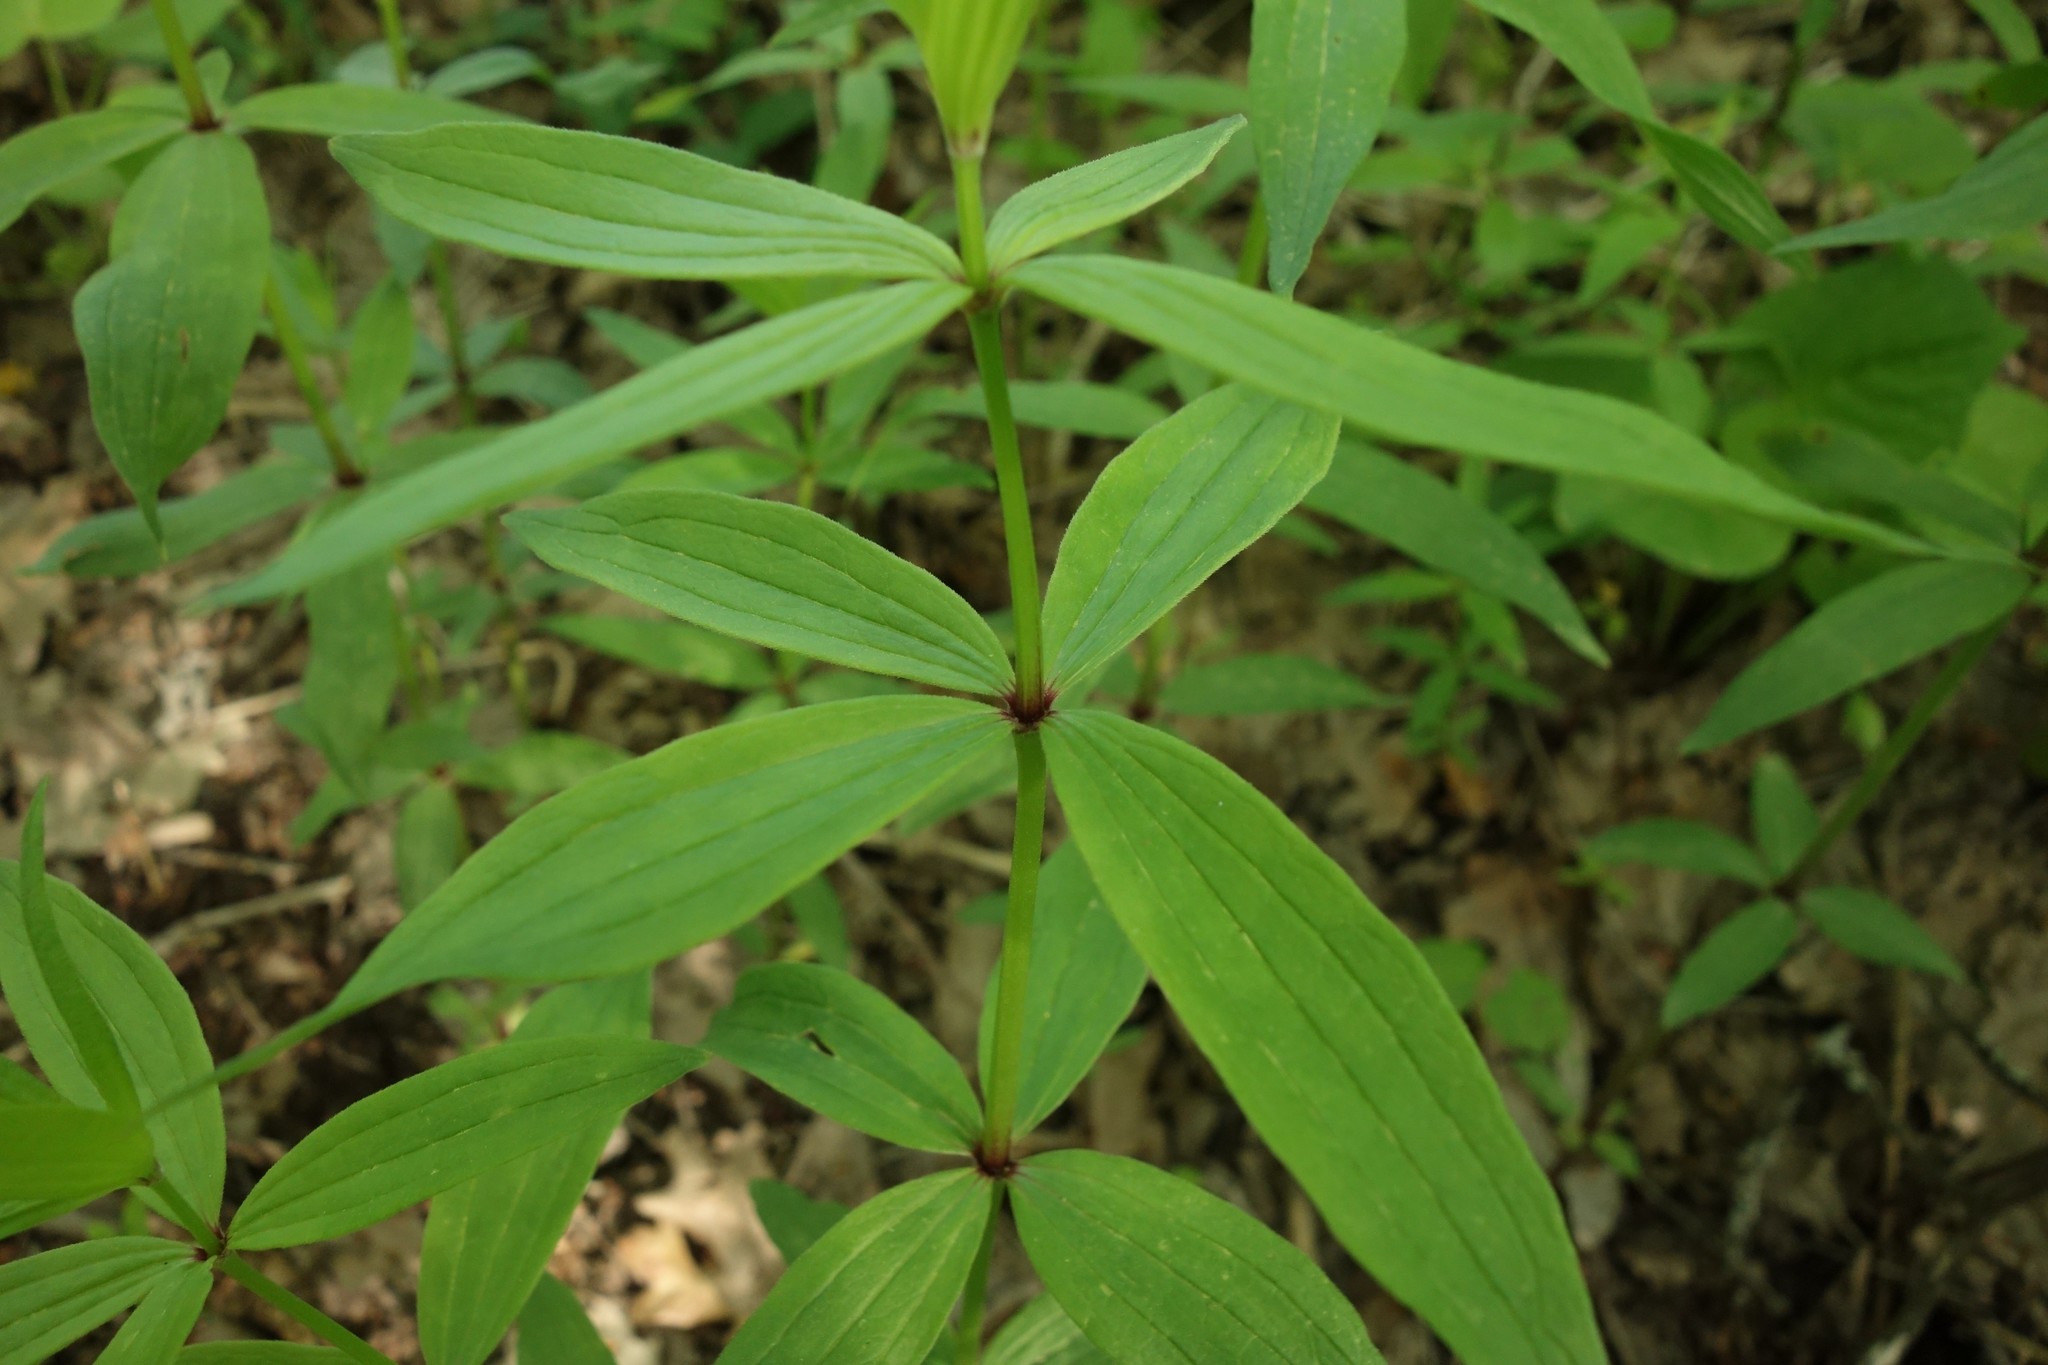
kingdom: Plantae
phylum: Tracheophyta
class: Magnoliopsida
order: Gentianales
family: Rubiaceae
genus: Galium
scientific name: Galium rubioides
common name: European bedstraw
